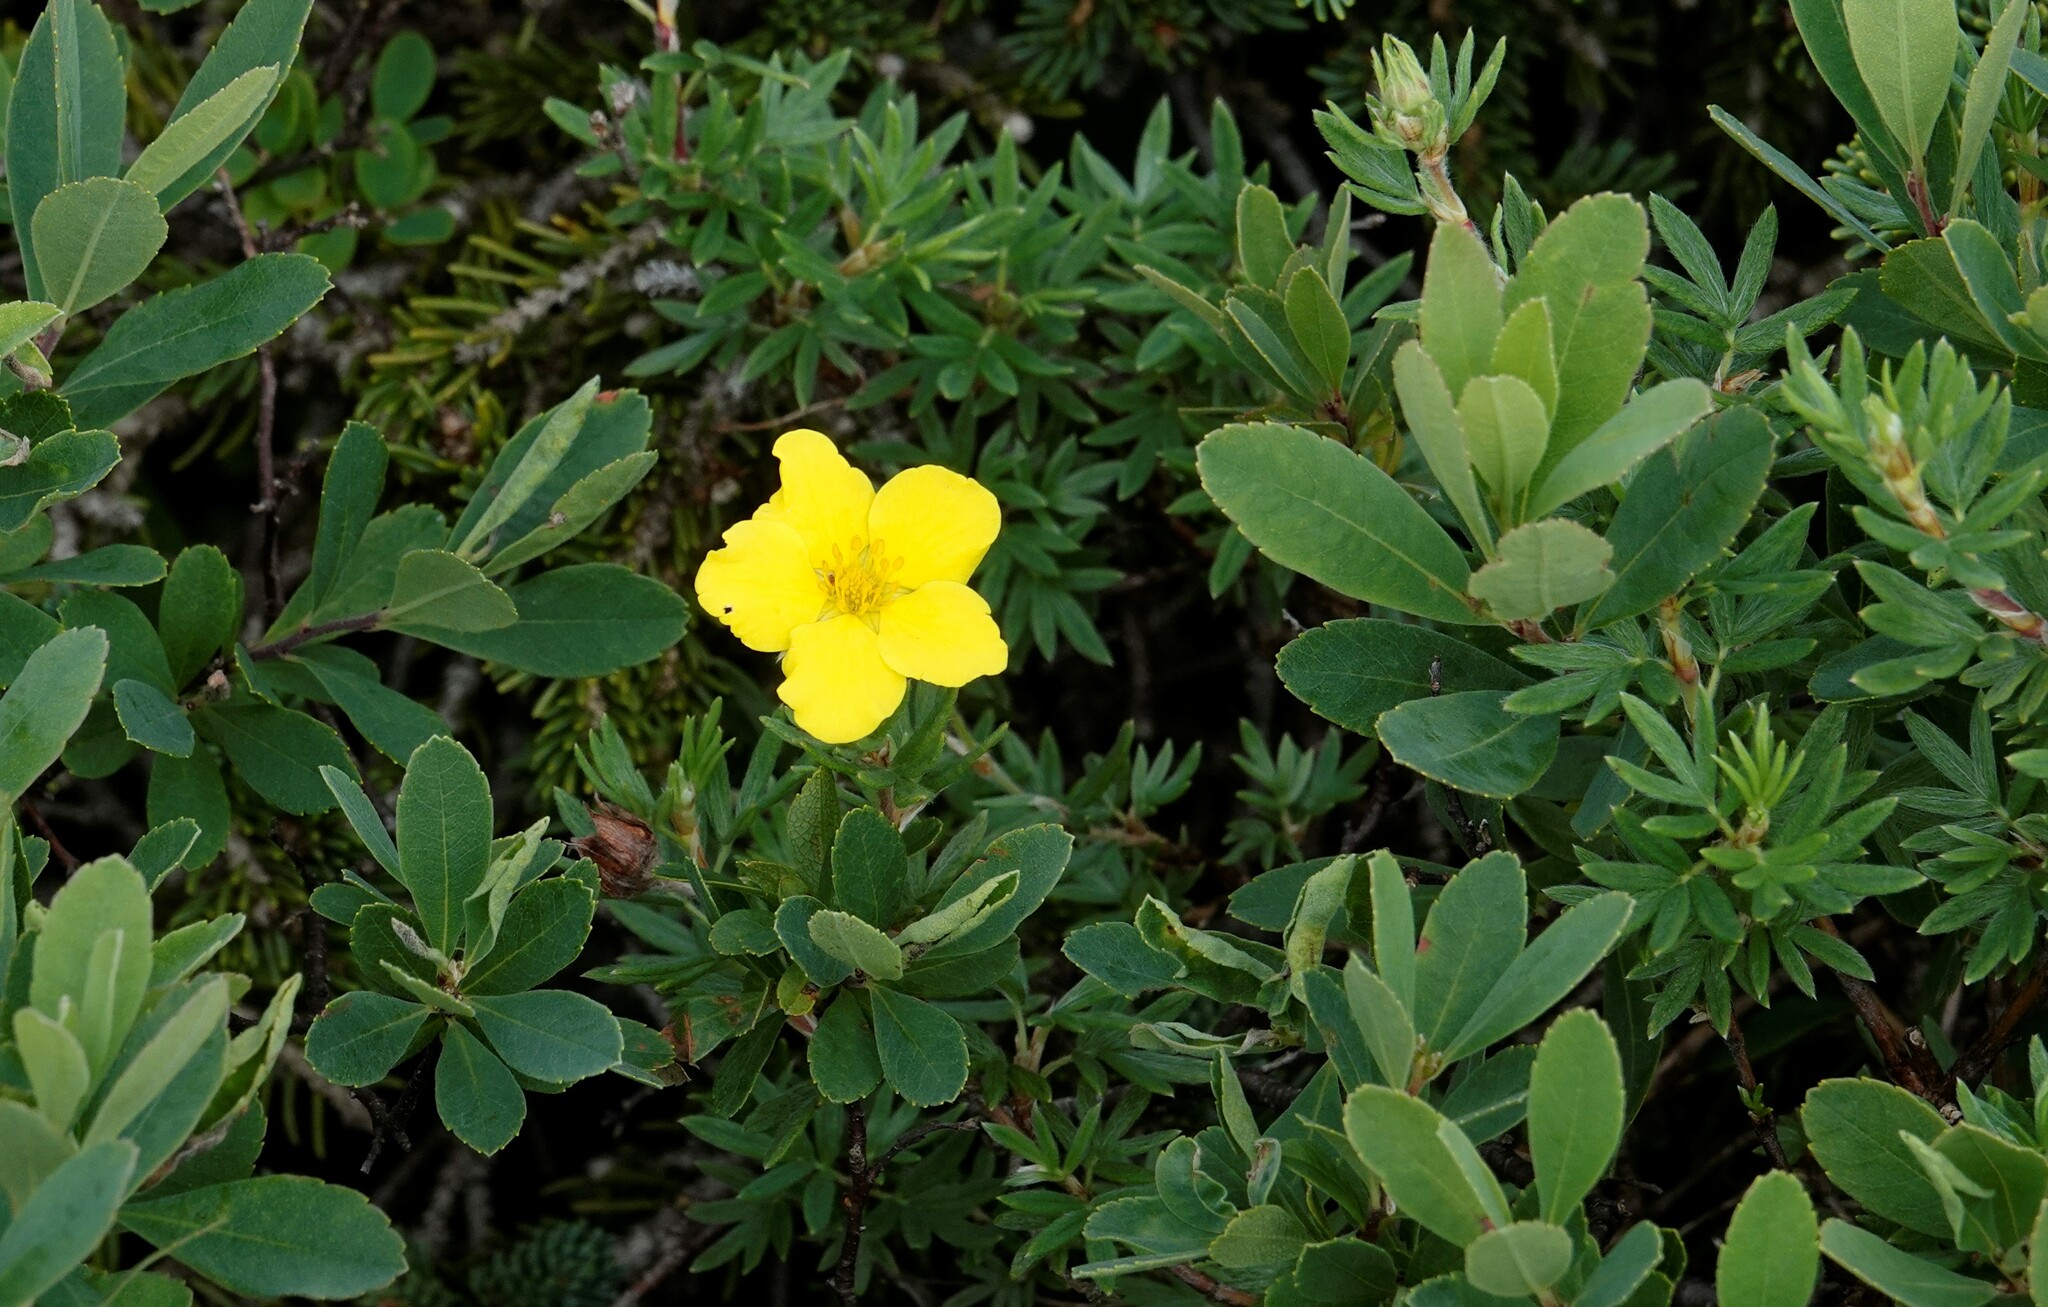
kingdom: Plantae
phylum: Tracheophyta
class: Magnoliopsida
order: Rosales
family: Rosaceae
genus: Dasiphora
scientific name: Dasiphora fruticosa
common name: Shrubby cinquefoil
